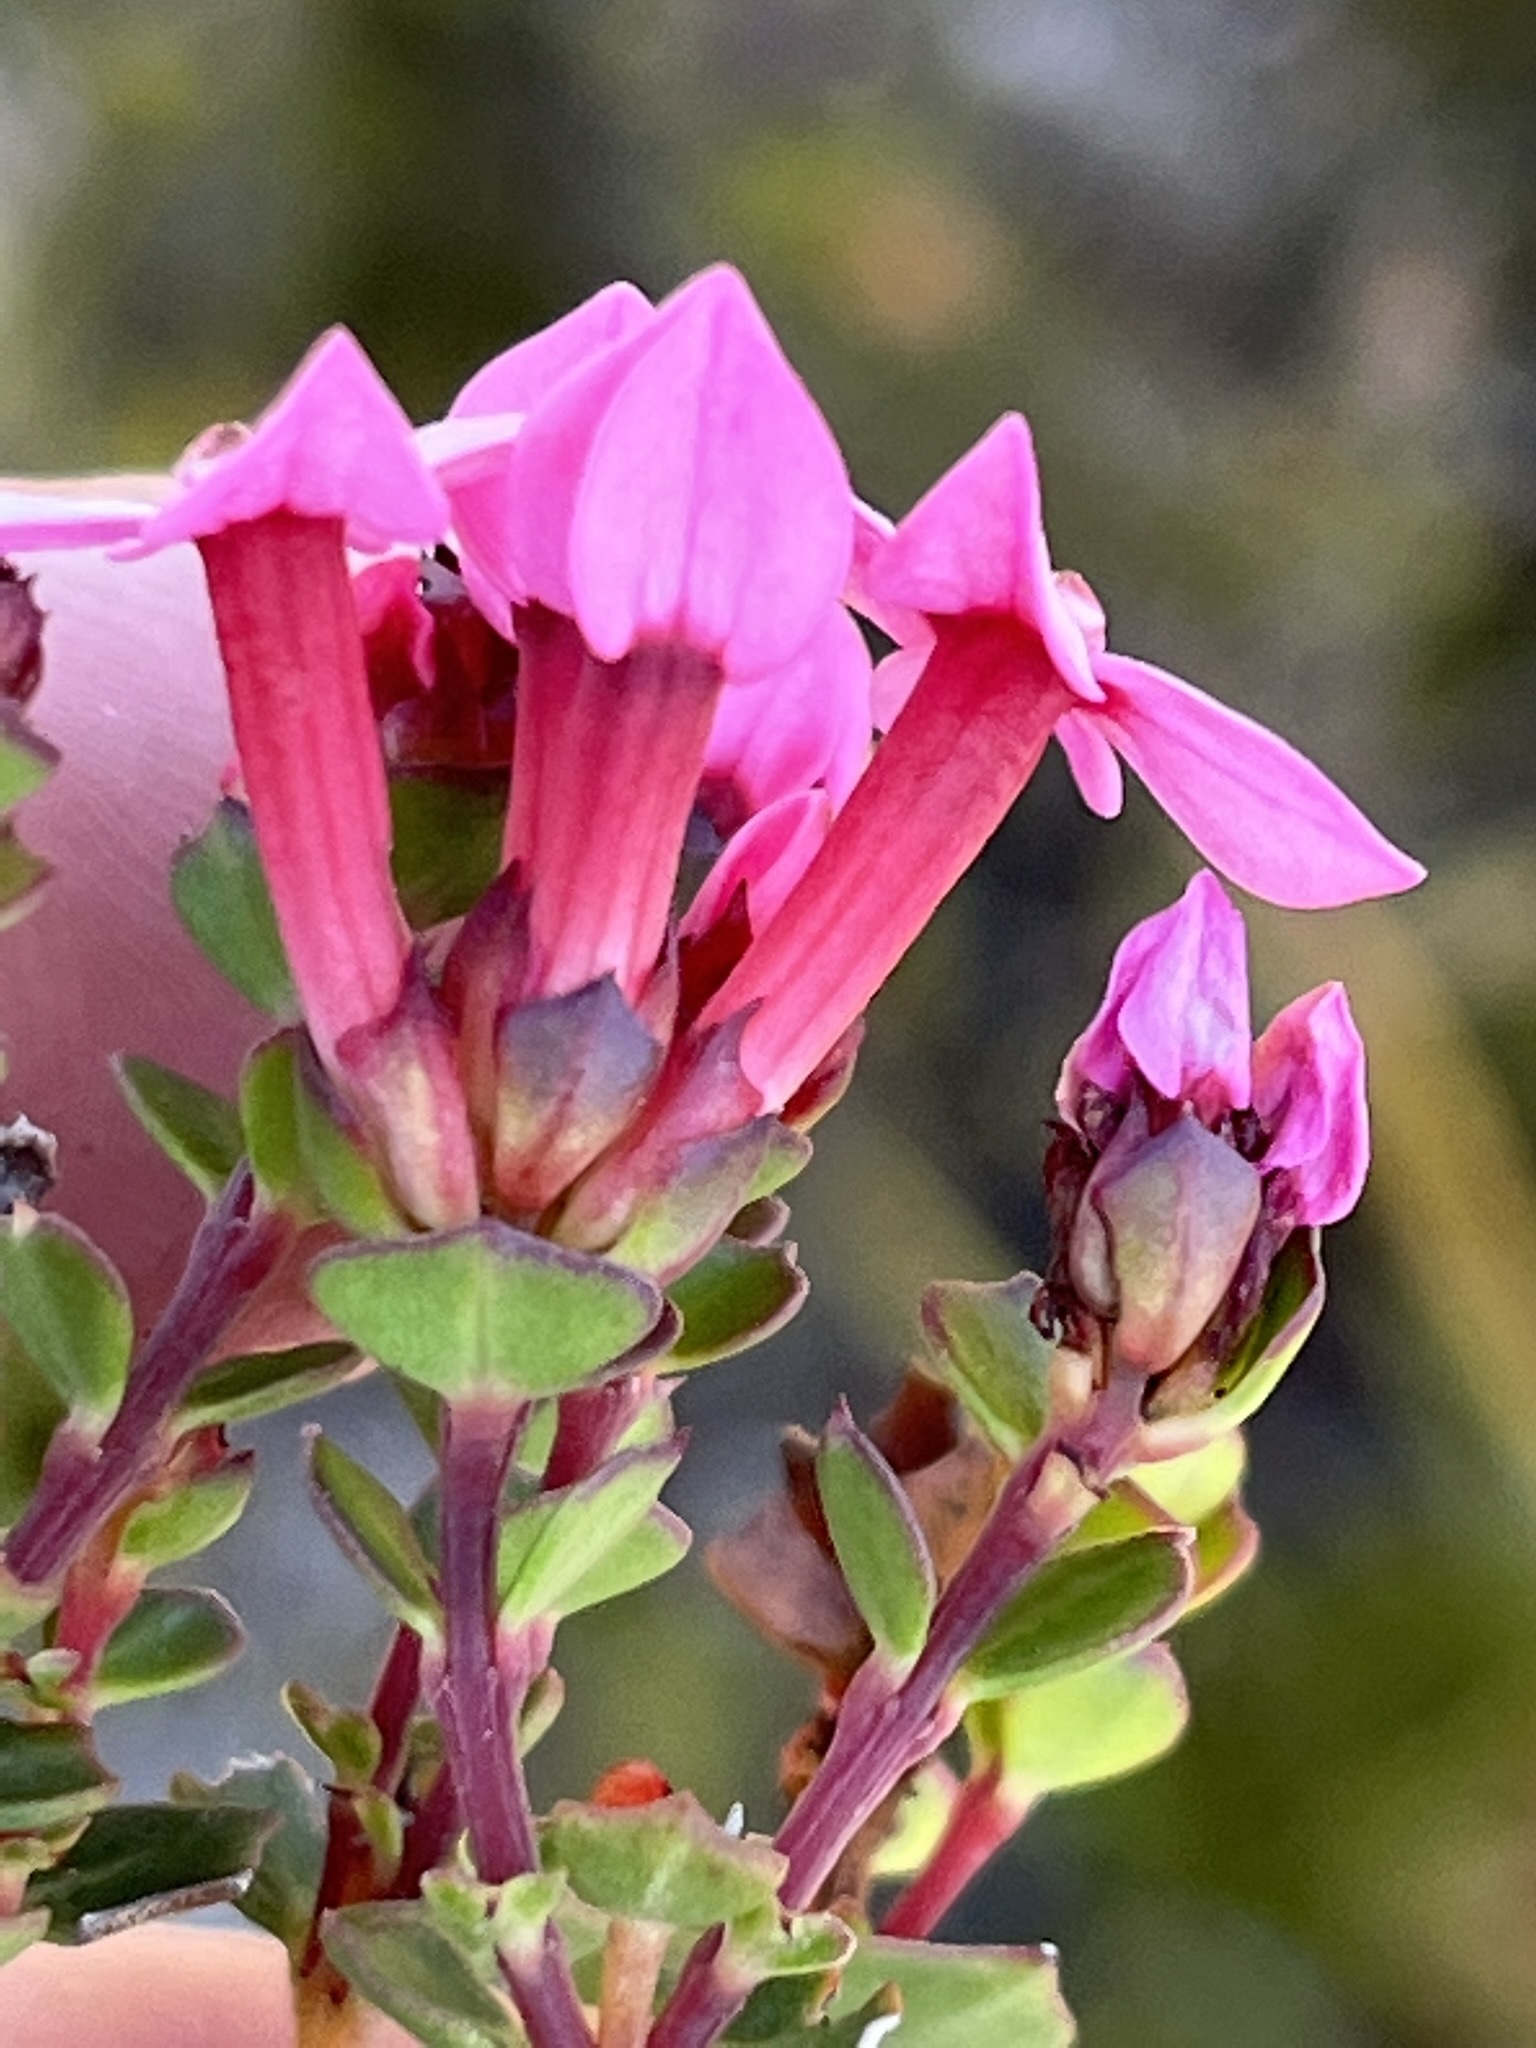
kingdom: Plantae
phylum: Tracheophyta
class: Magnoliopsida
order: Myrtales
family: Penaeaceae
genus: Brachysiphon
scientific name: Brachysiphon acutus
